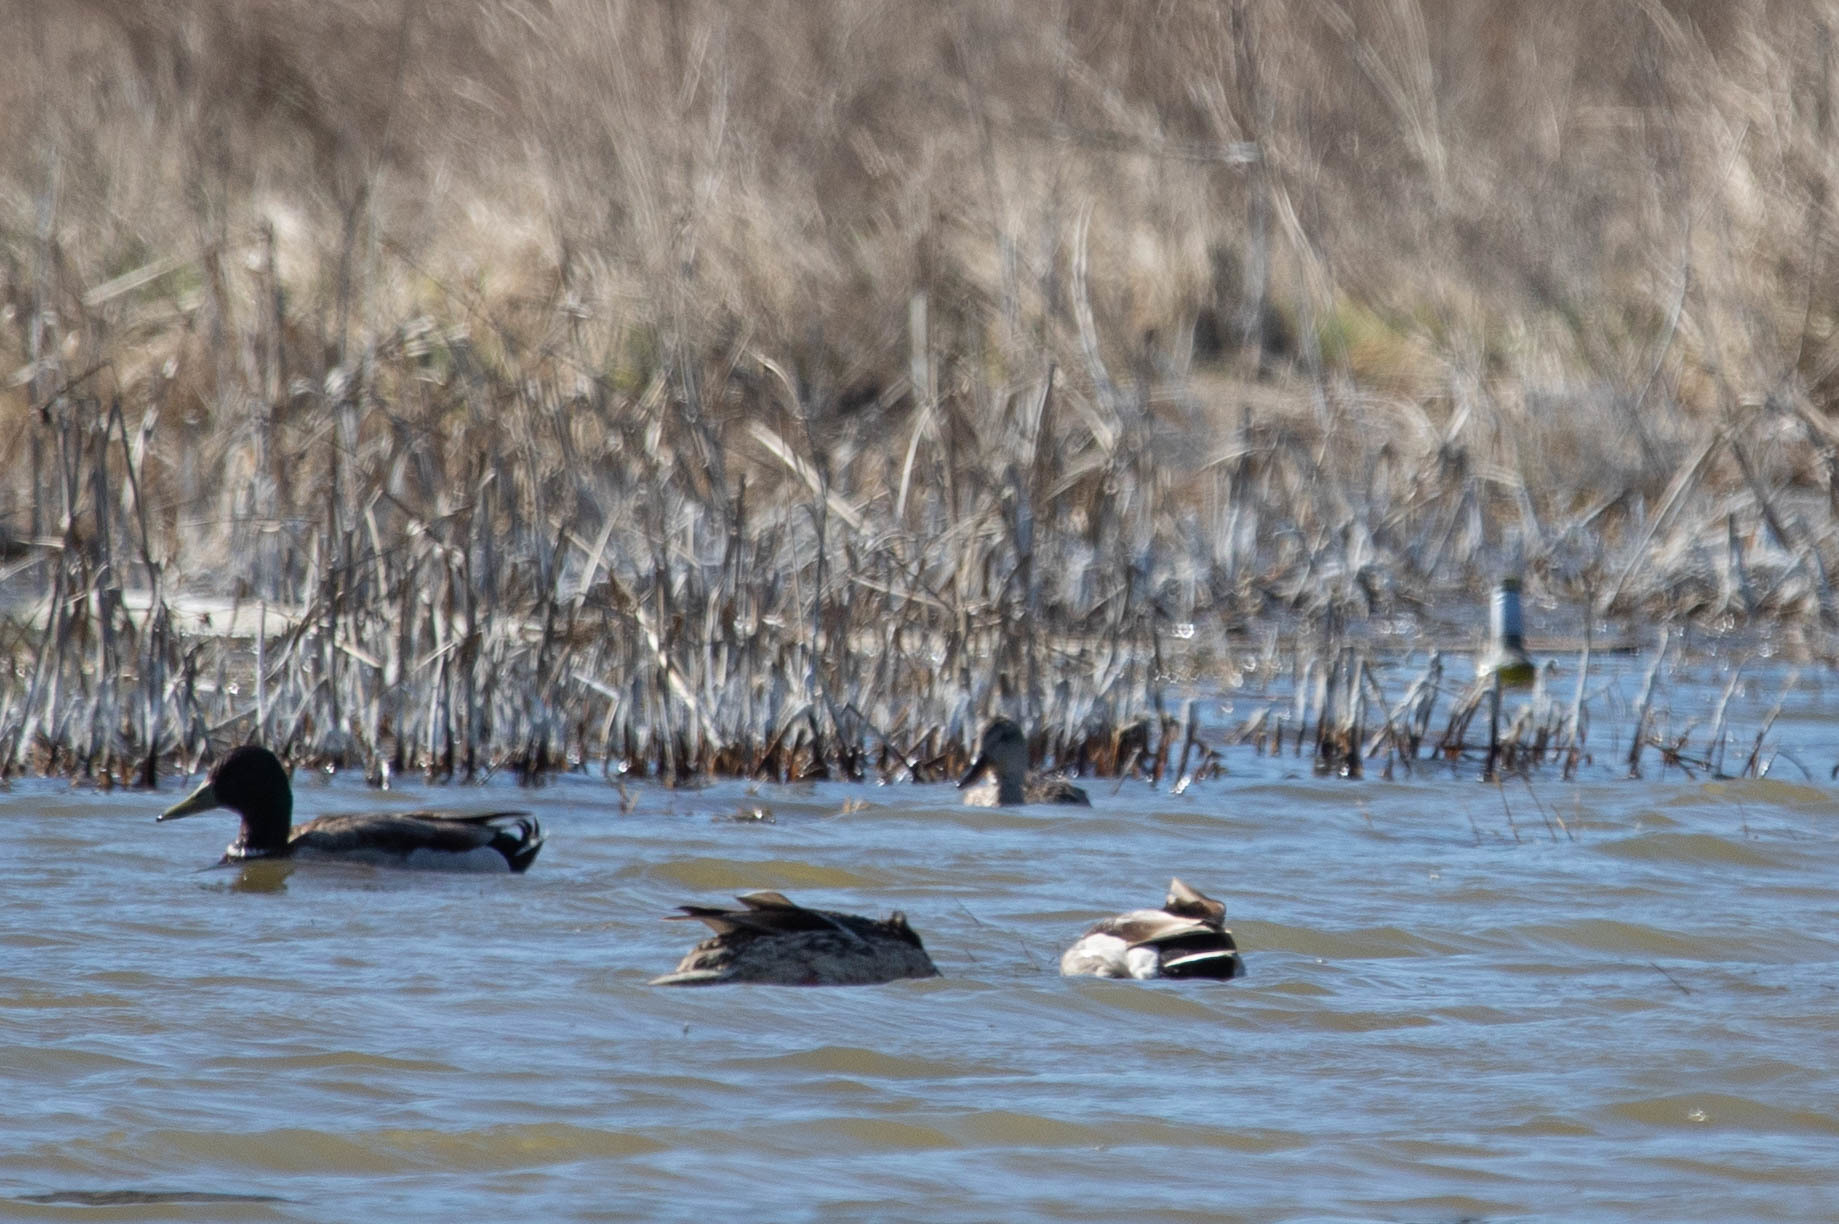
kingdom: Animalia
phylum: Chordata
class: Aves
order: Anseriformes
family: Anatidae
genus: Anas
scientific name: Anas platyrhynchos
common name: Mallard
